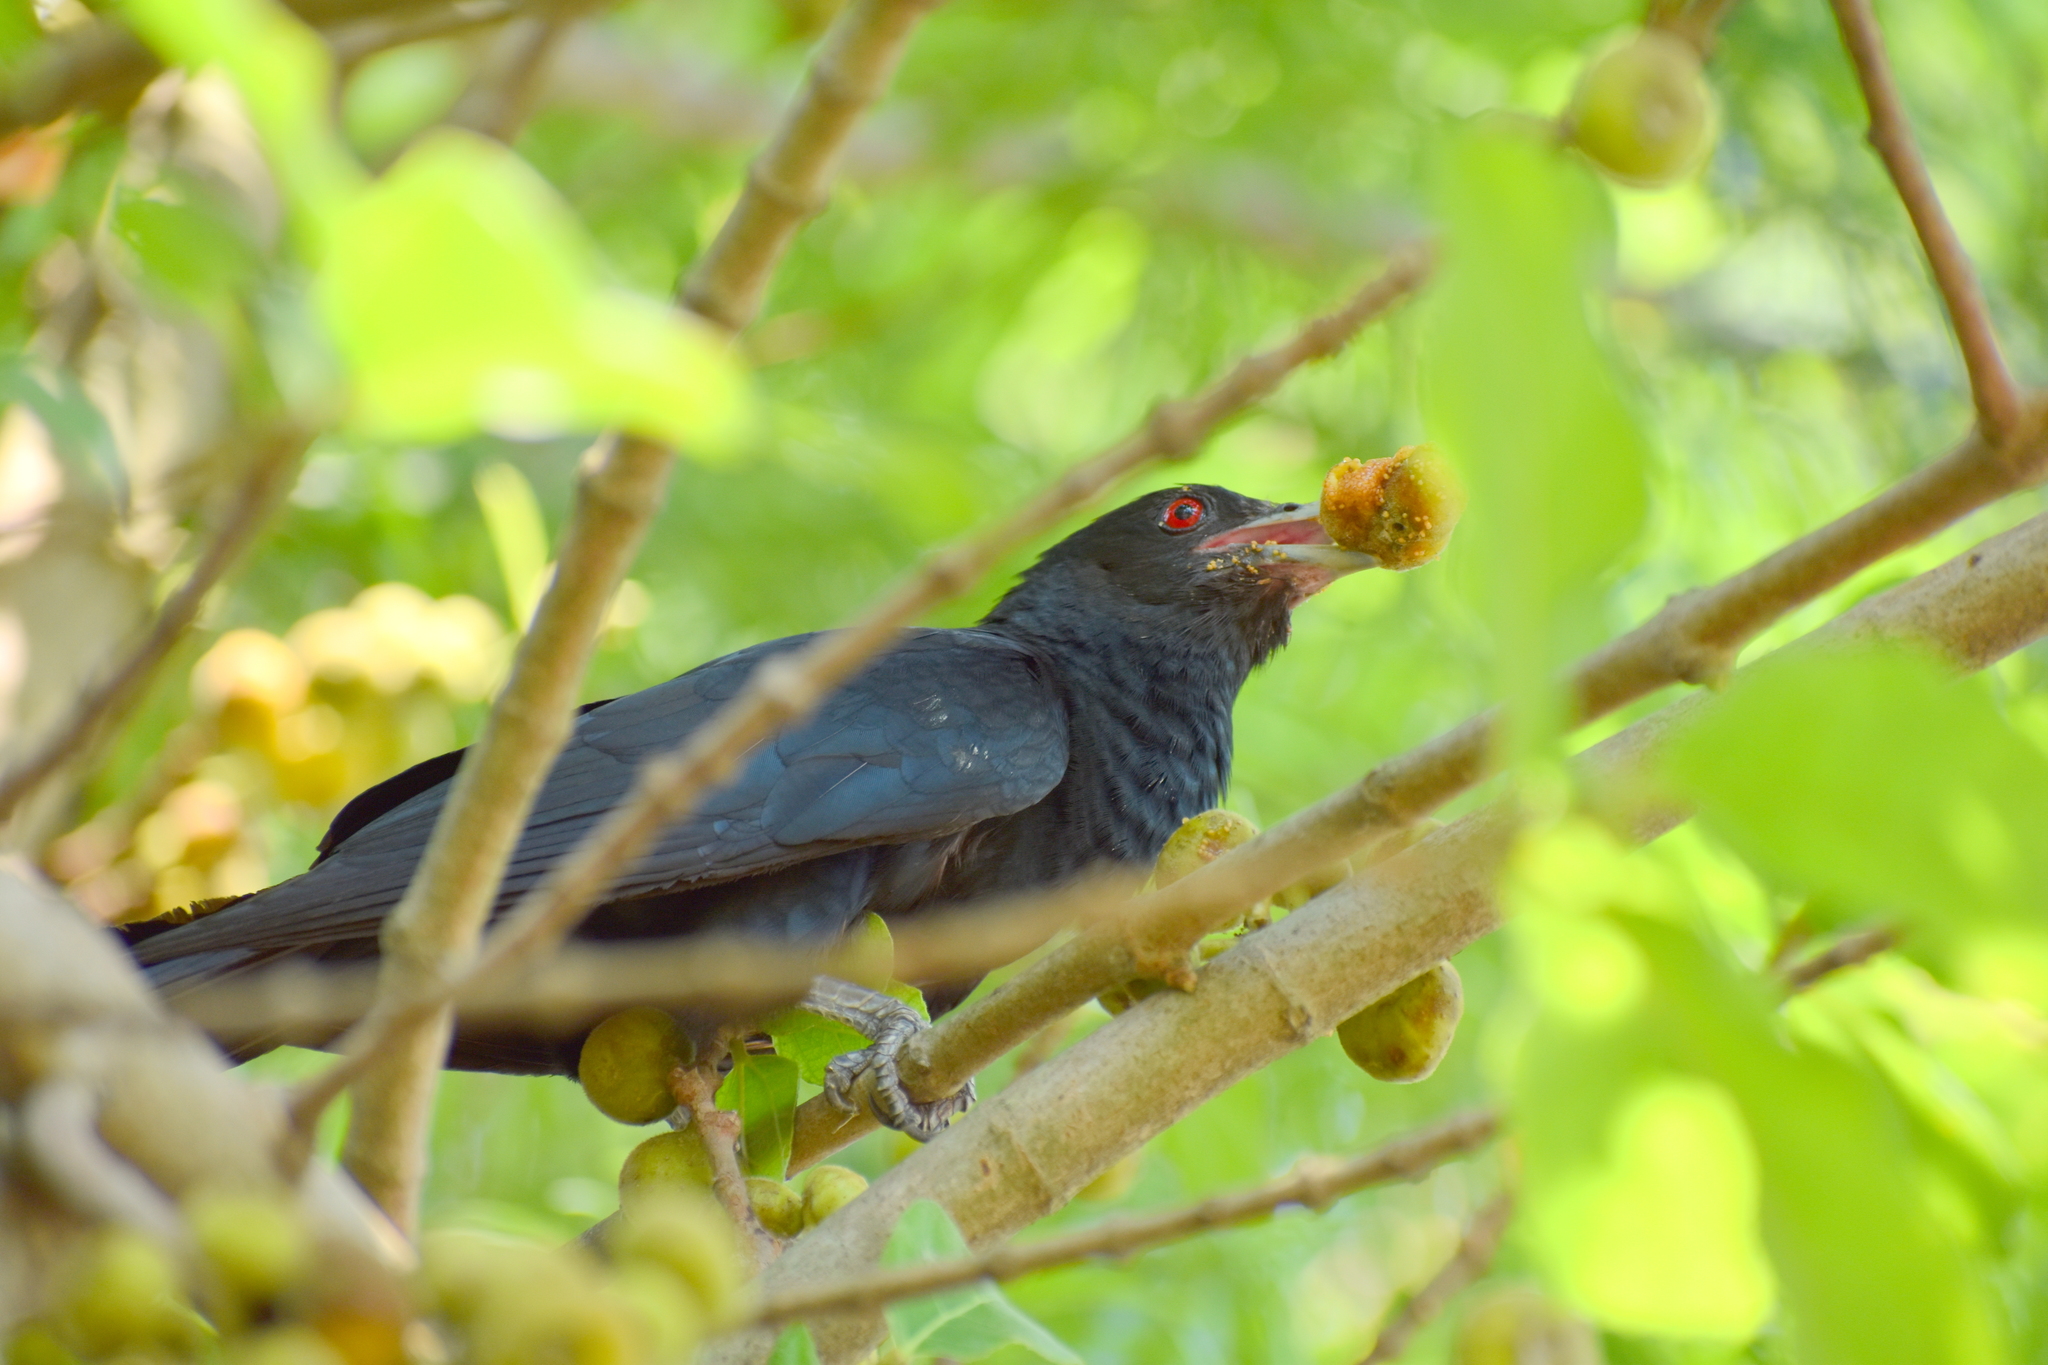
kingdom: Animalia
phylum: Chordata
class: Aves
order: Cuculiformes
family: Cuculidae
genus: Eudynamys
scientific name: Eudynamys scolopaceus
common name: Asian koel
